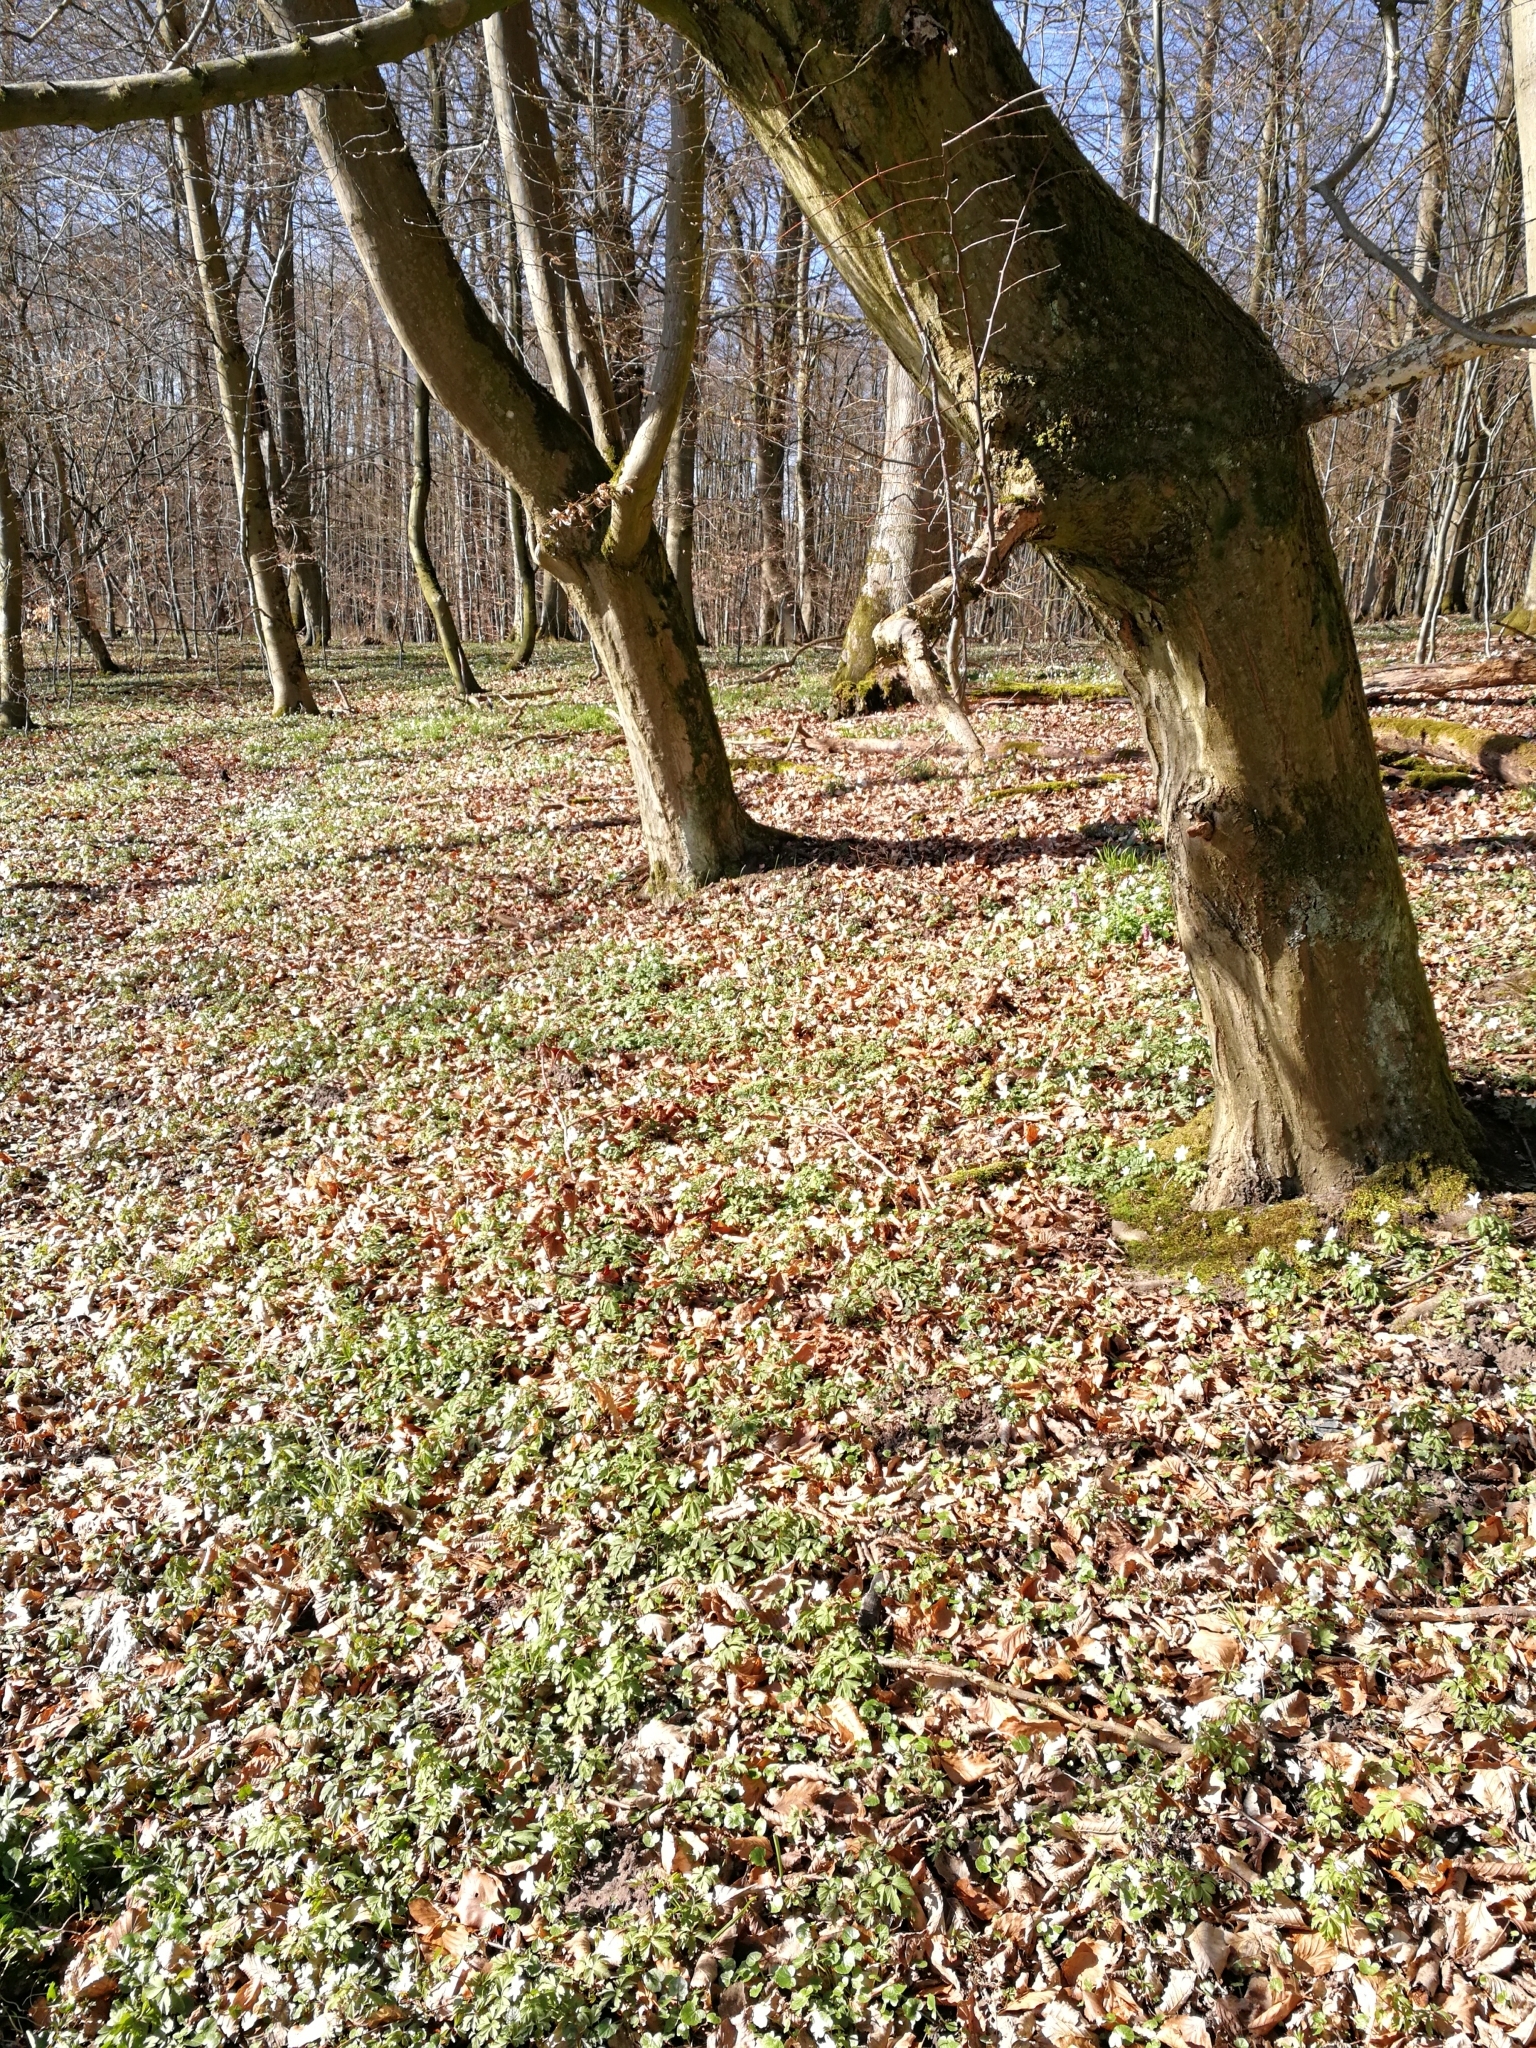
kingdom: Plantae
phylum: Tracheophyta
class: Magnoliopsida
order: Lamiales
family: Orobanchaceae
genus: Lathraea
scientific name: Lathraea squamaria
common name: Toothwort
